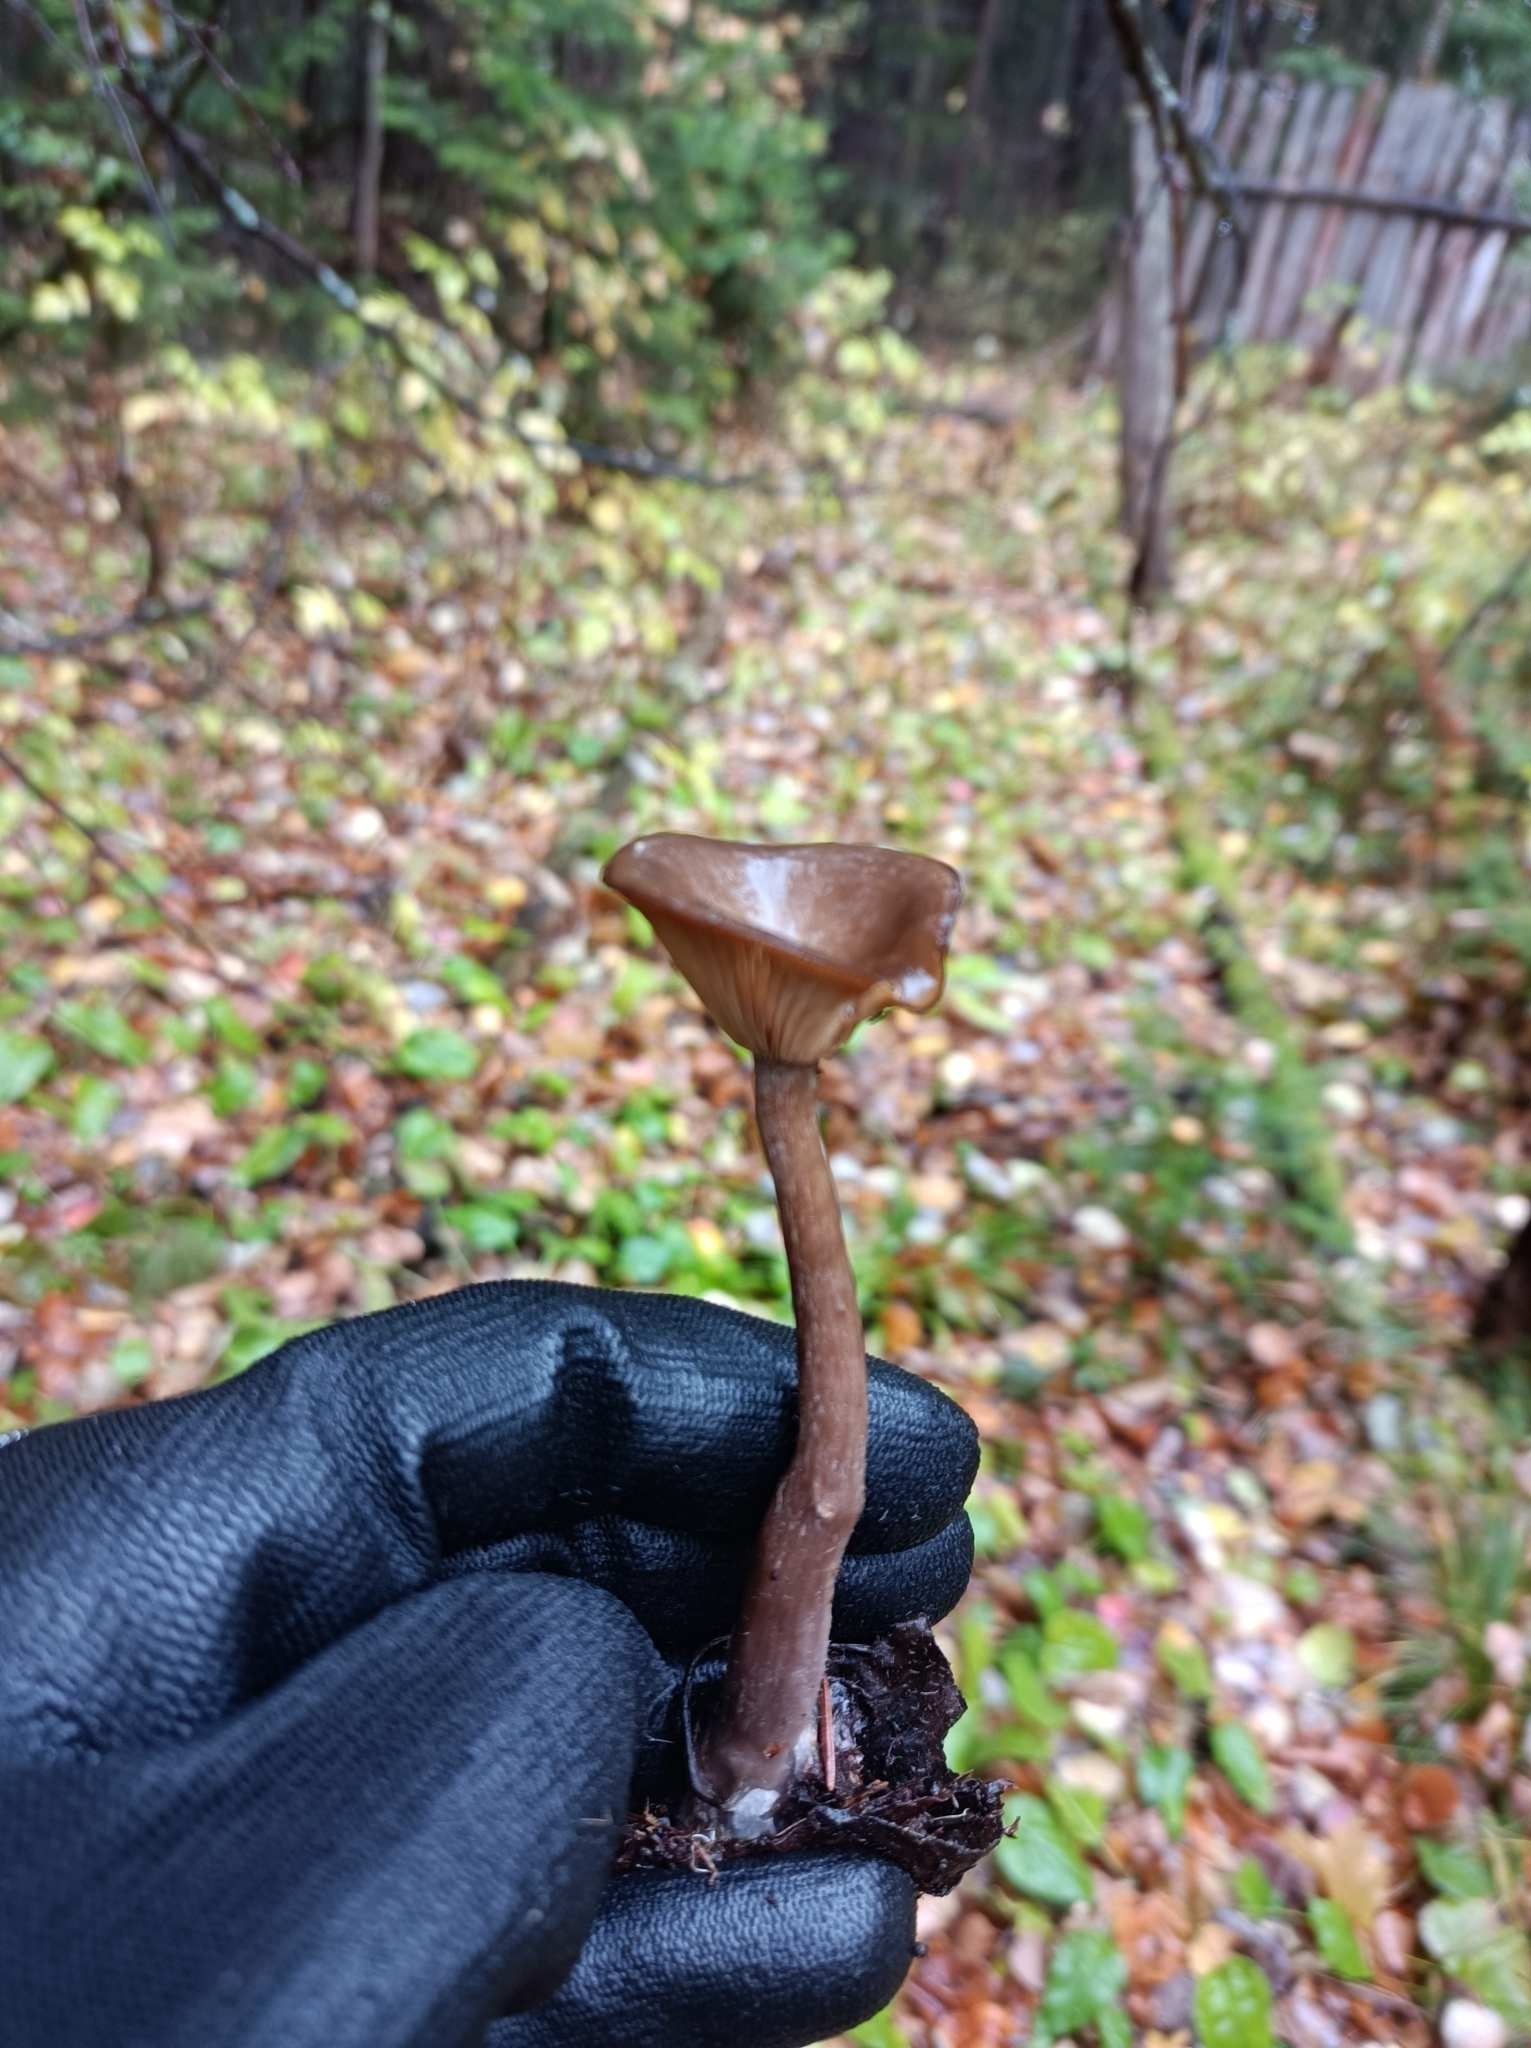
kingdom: Fungi
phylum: Basidiomycota
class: Agaricomycetes
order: Agaricales
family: Pseudoclitocybaceae
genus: Pseudoclitocybe
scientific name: Pseudoclitocybe cyathiformis
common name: Goblet
